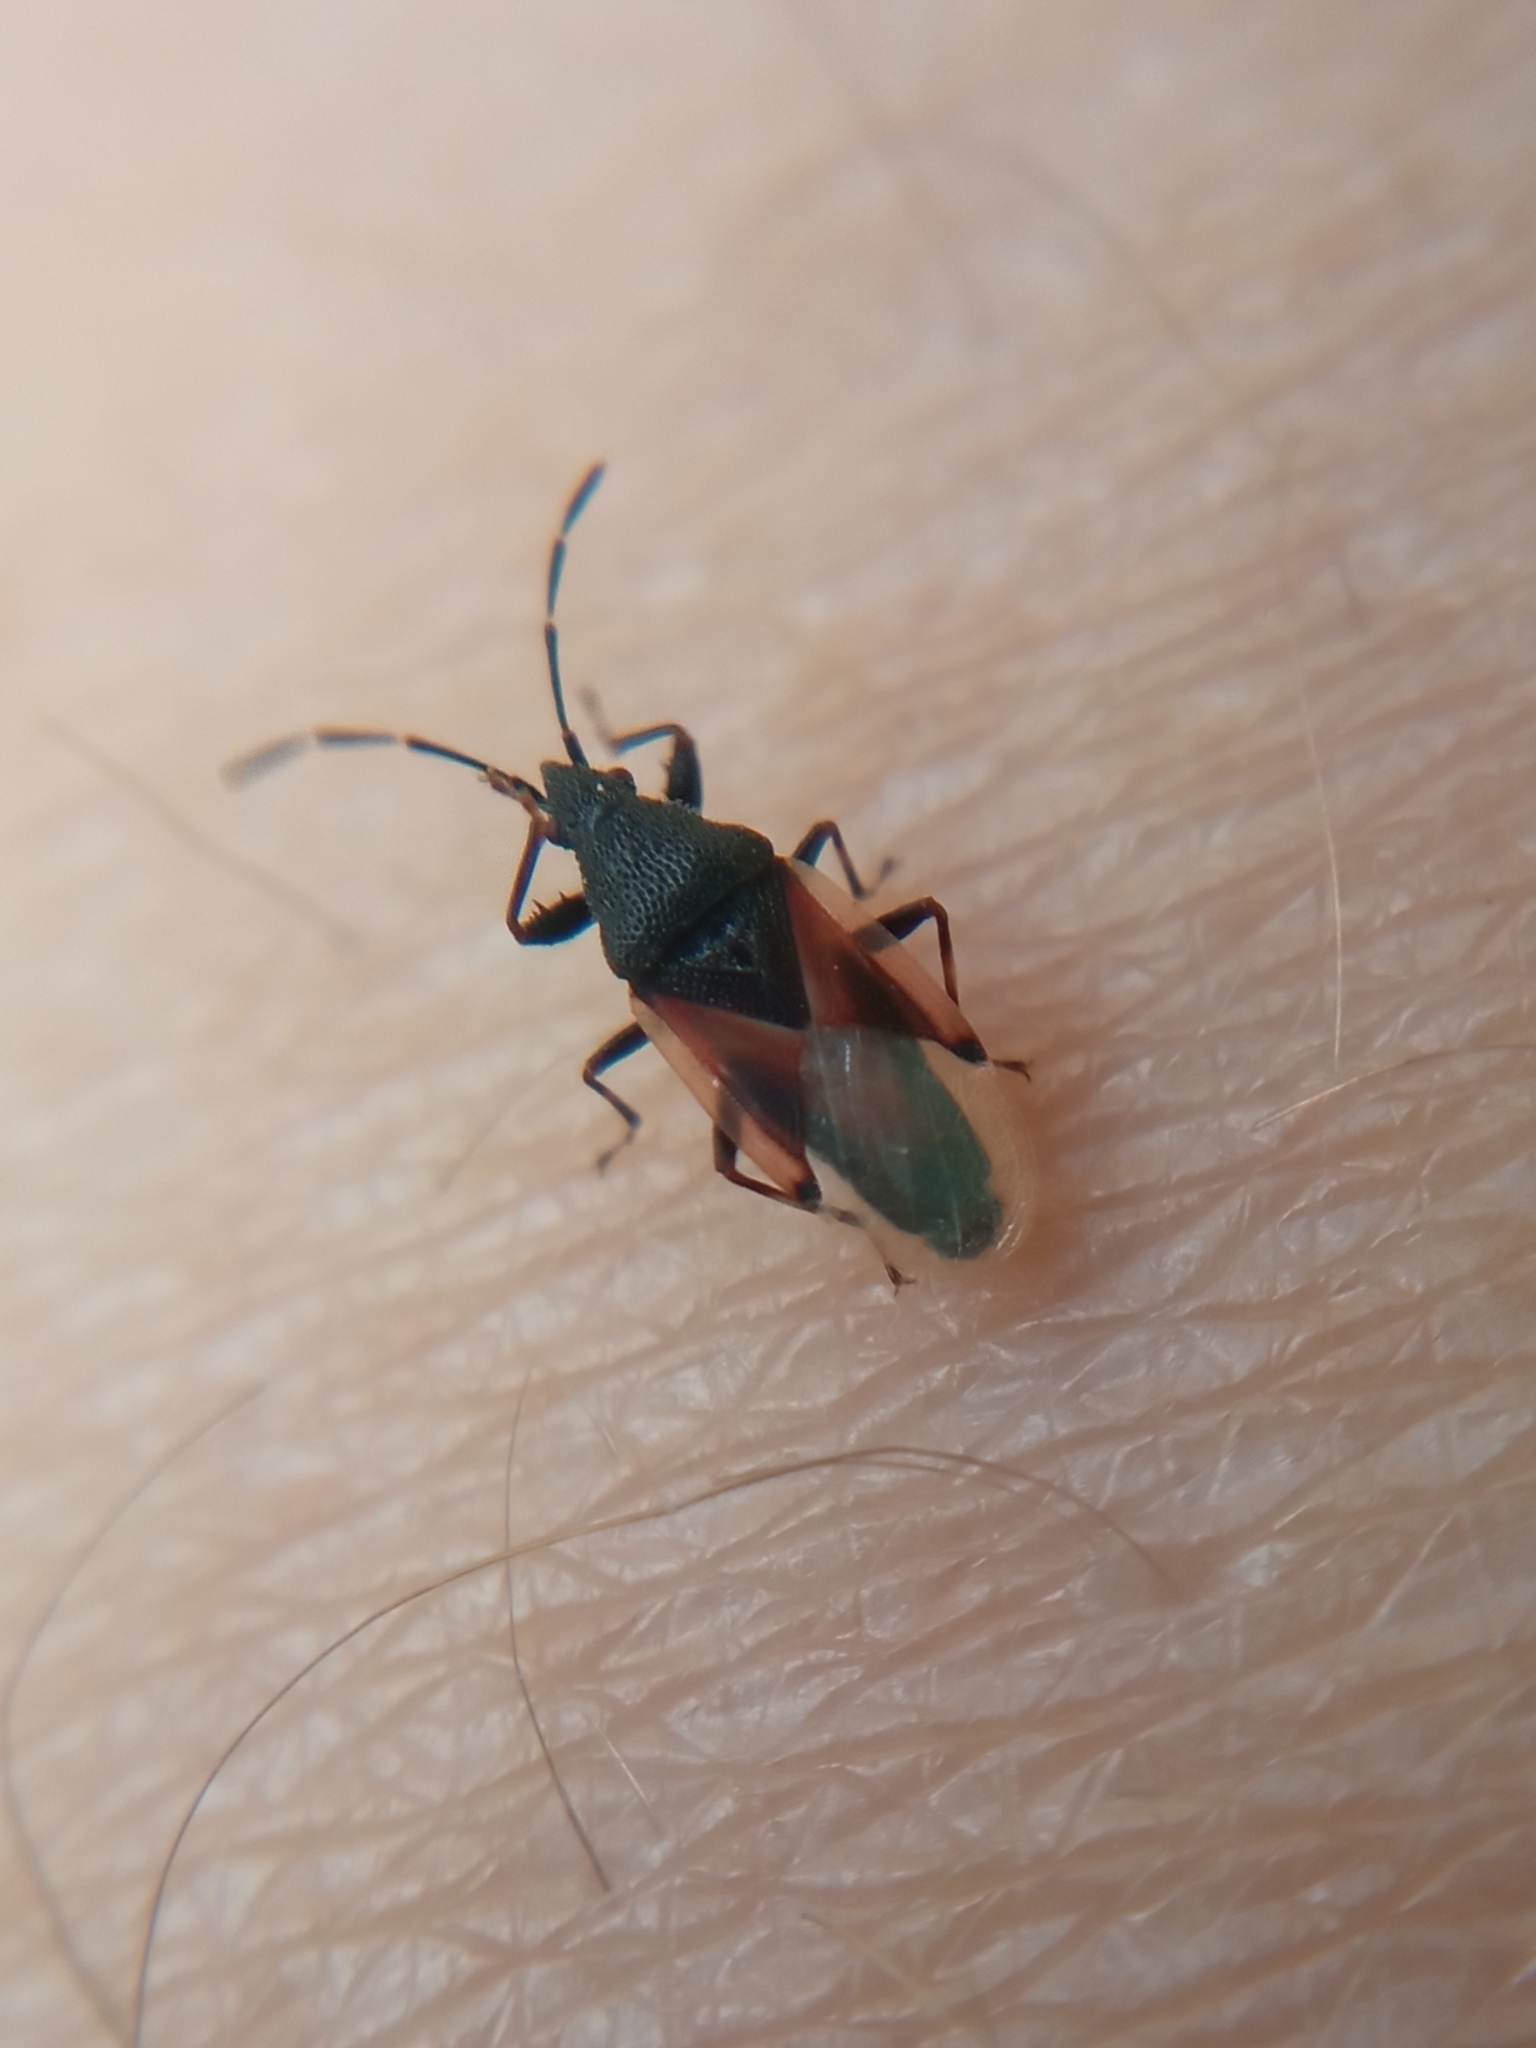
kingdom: Animalia
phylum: Arthropoda
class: Insecta
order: Hemiptera
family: Oxycarenidae
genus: Oxycarenus
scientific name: Oxycarenus lavaterae
